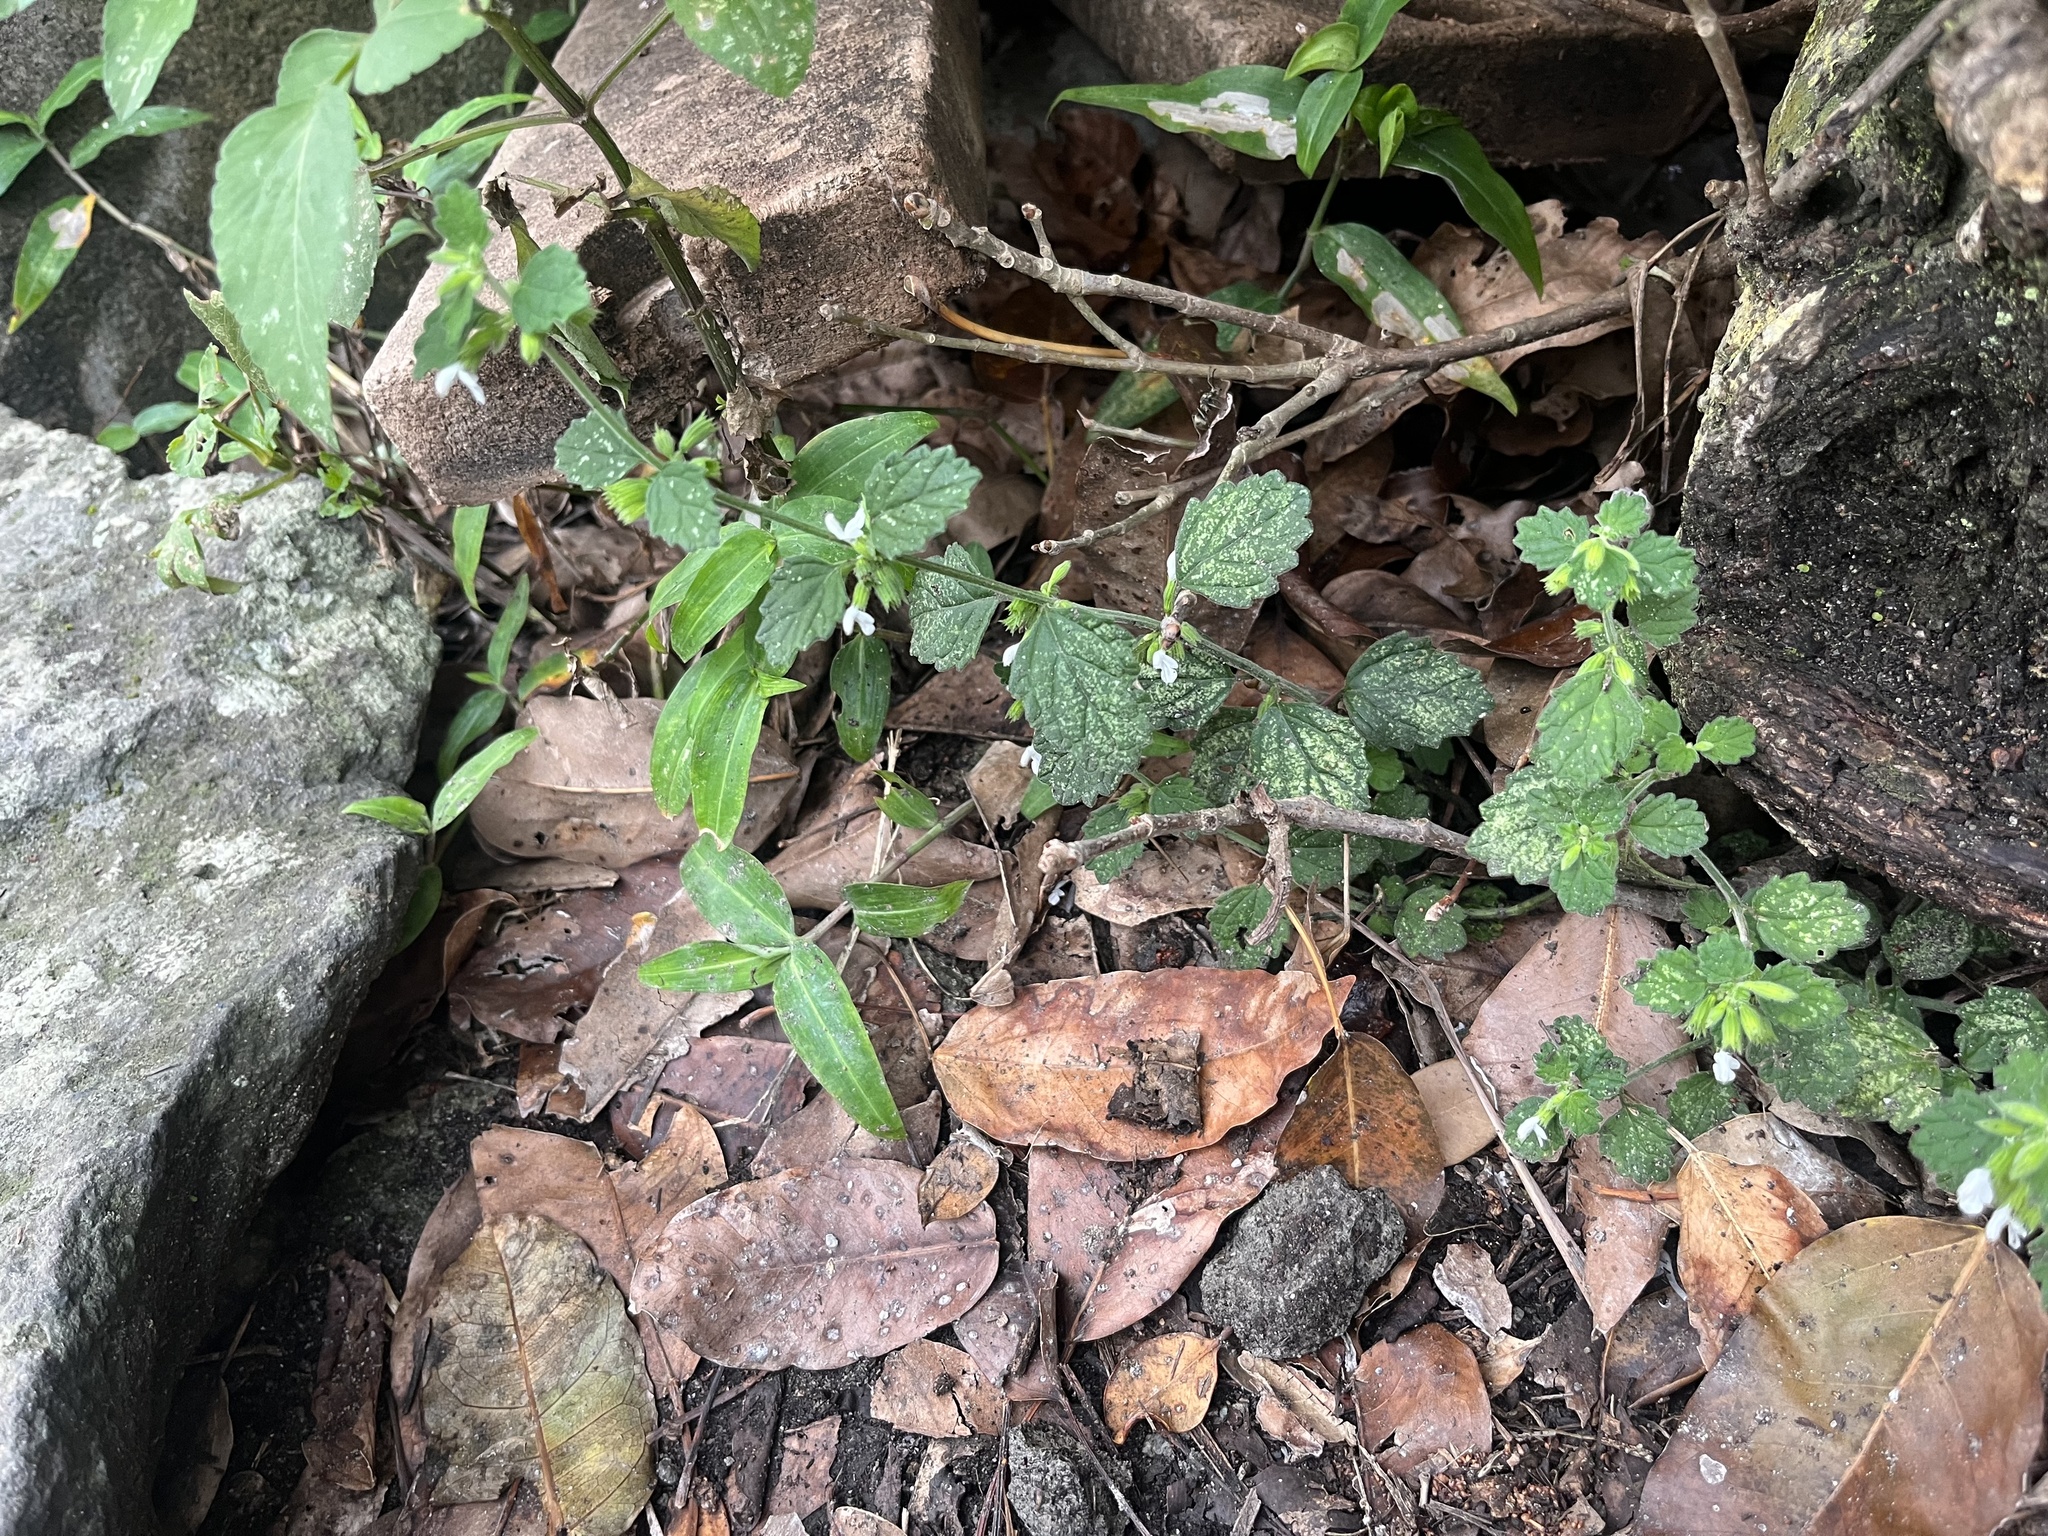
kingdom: Plantae
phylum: Tracheophyta
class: Magnoliopsida
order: Lamiales
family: Lamiaceae
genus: Leucas
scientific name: Leucas chinensis
